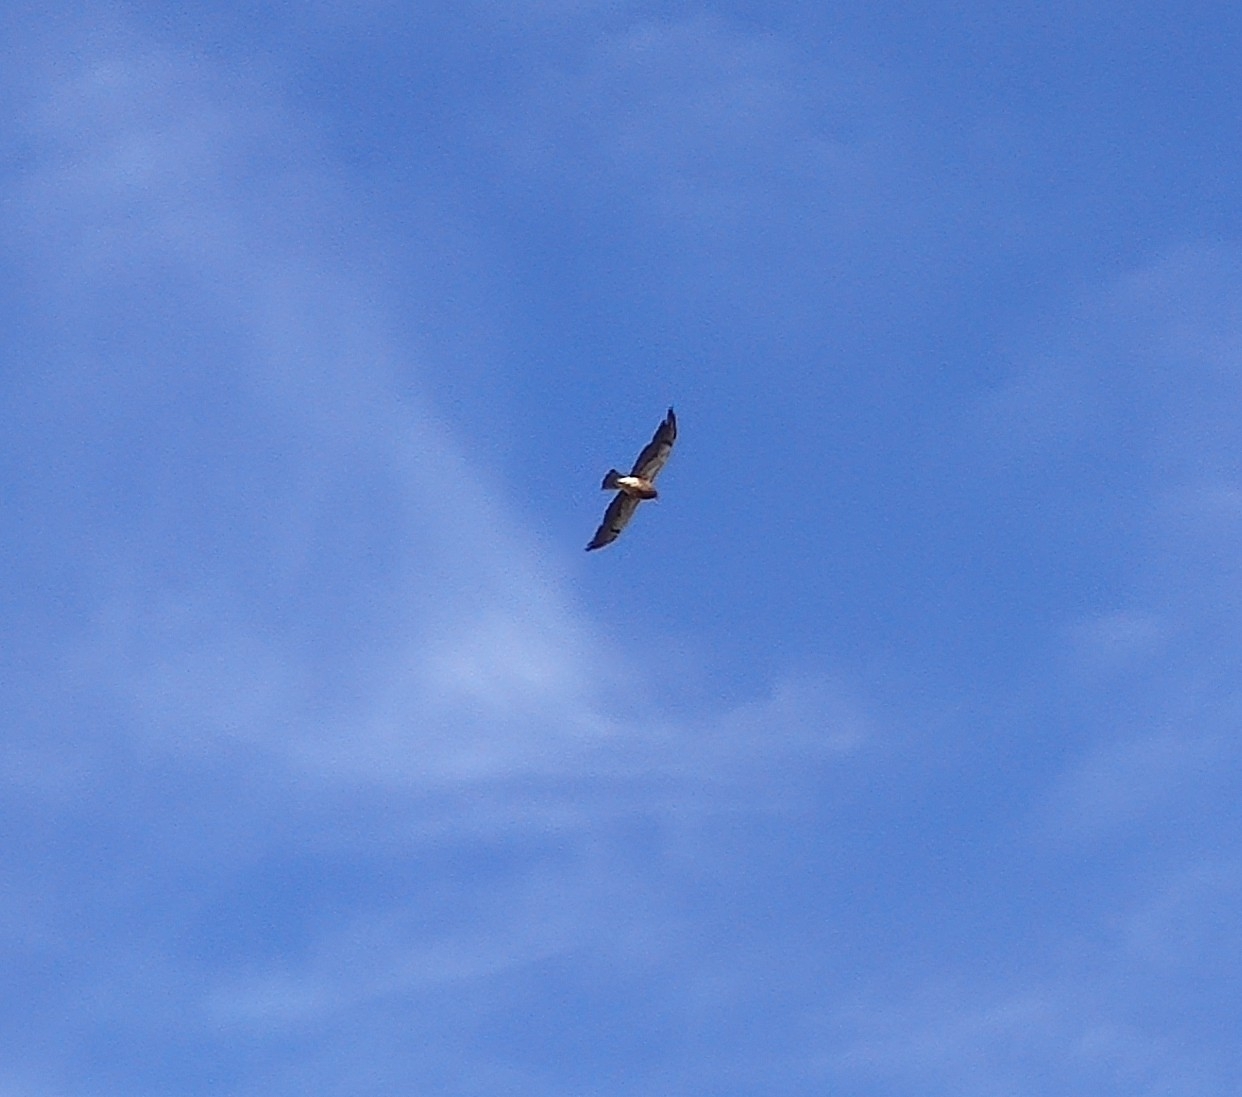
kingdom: Animalia
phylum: Chordata
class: Aves
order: Accipitriformes
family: Accipitridae
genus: Buteo
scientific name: Buteo swainsoni
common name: Swainson's hawk
